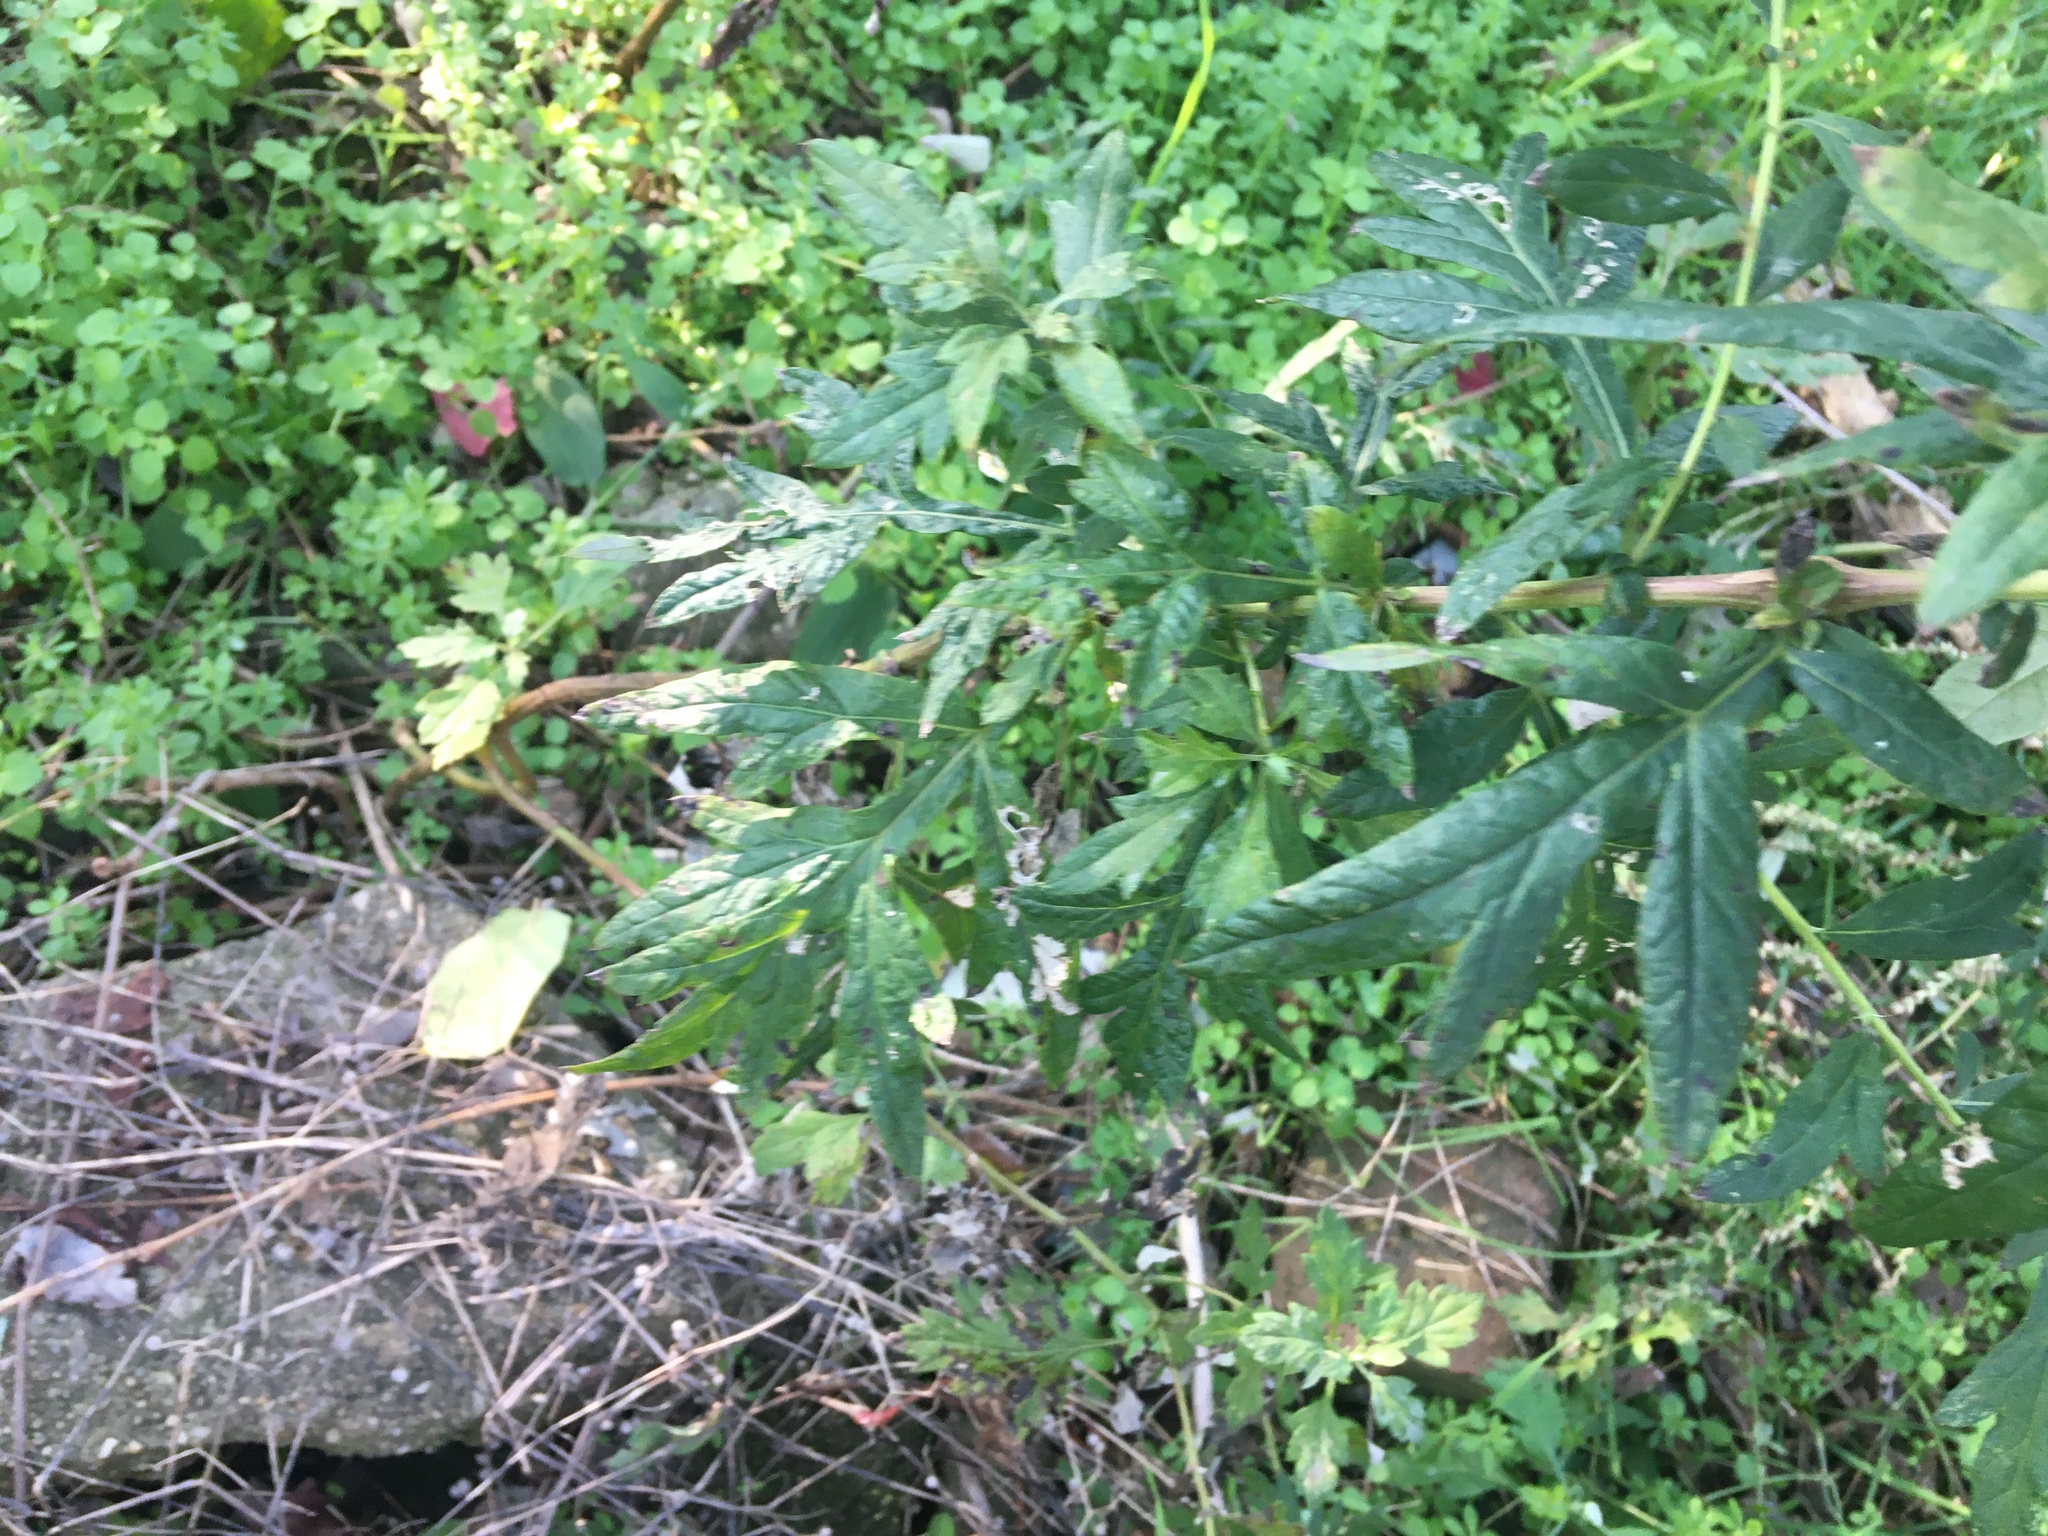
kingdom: Plantae
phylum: Tracheophyta
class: Magnoliopsida
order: Asterales
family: Asteraceae
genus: Artemisia
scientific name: Artemisia vulgaris
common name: Mugwort
